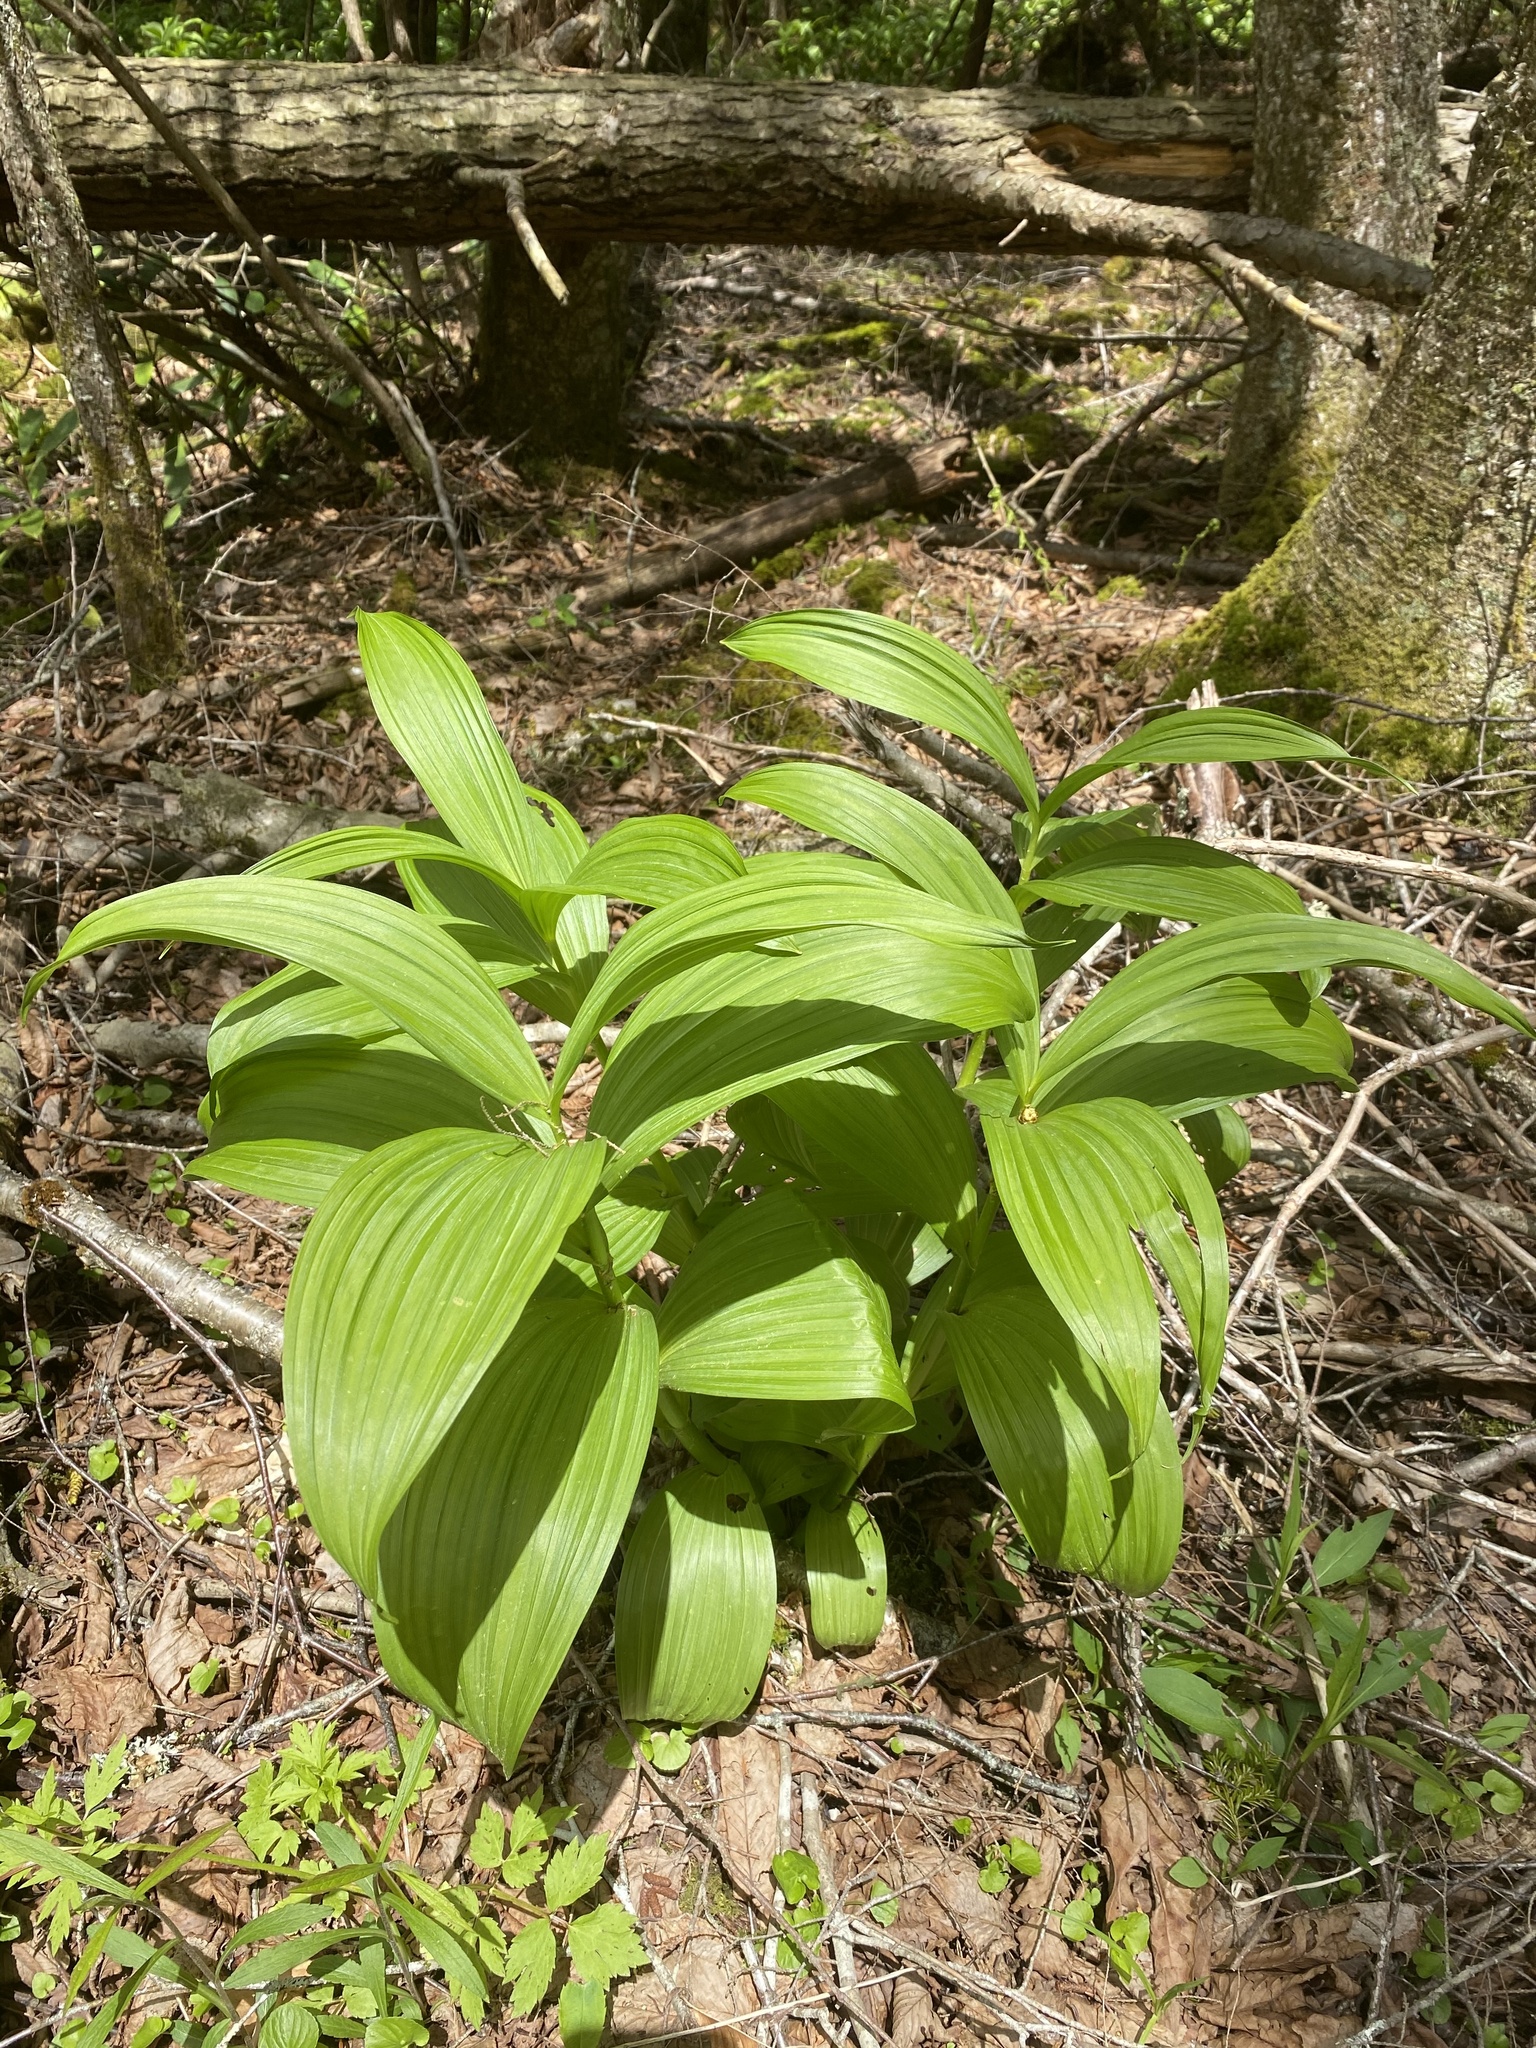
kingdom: Plantae
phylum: Tracheophyta
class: Liliopsida
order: Liliales
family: Melanthiaceae
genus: Veratrum
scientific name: Veratrum viride
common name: American false hellebore
